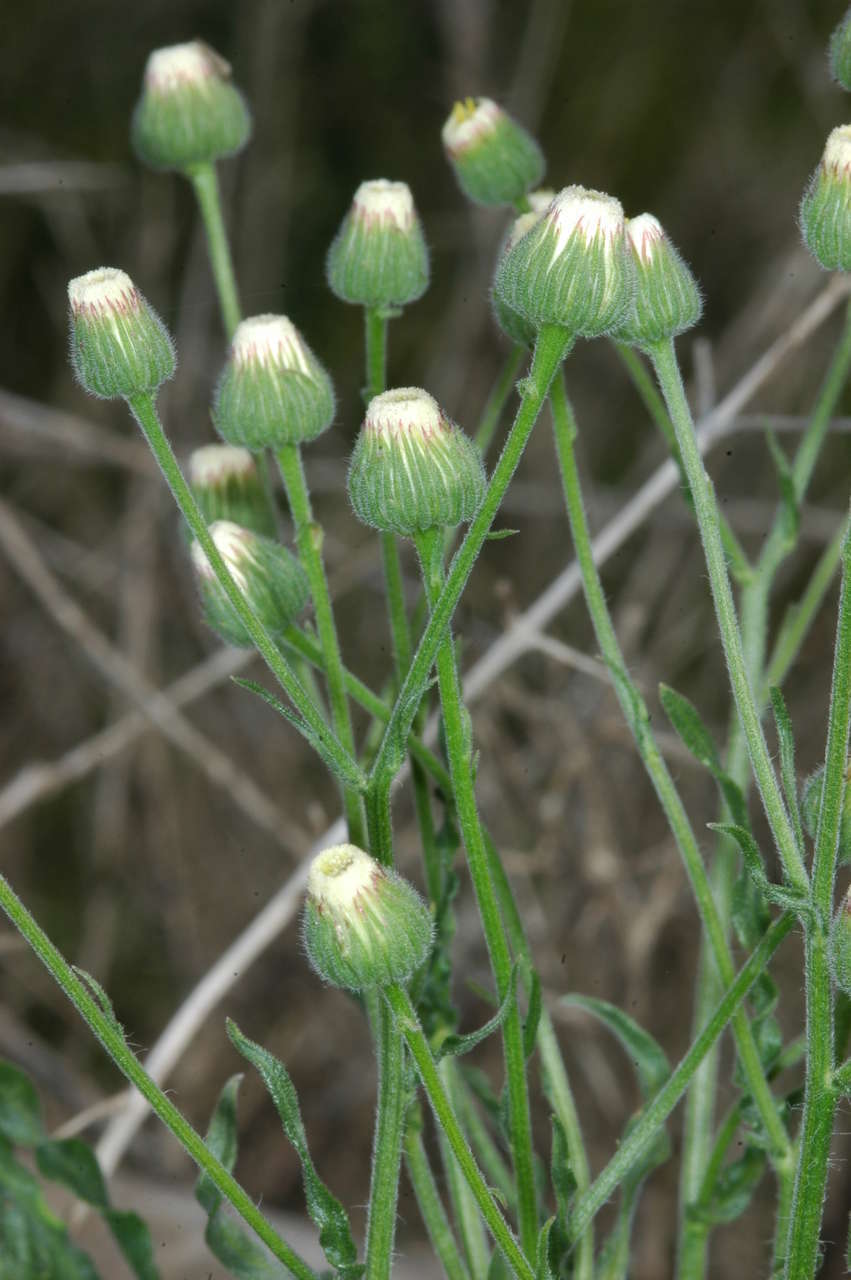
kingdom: Plantae
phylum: Tracheophyta
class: Magnoliopsida
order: Asterales
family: Asteraceae
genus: Erigeron
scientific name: Erigeron bonariensis
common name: Argentine fleabane
